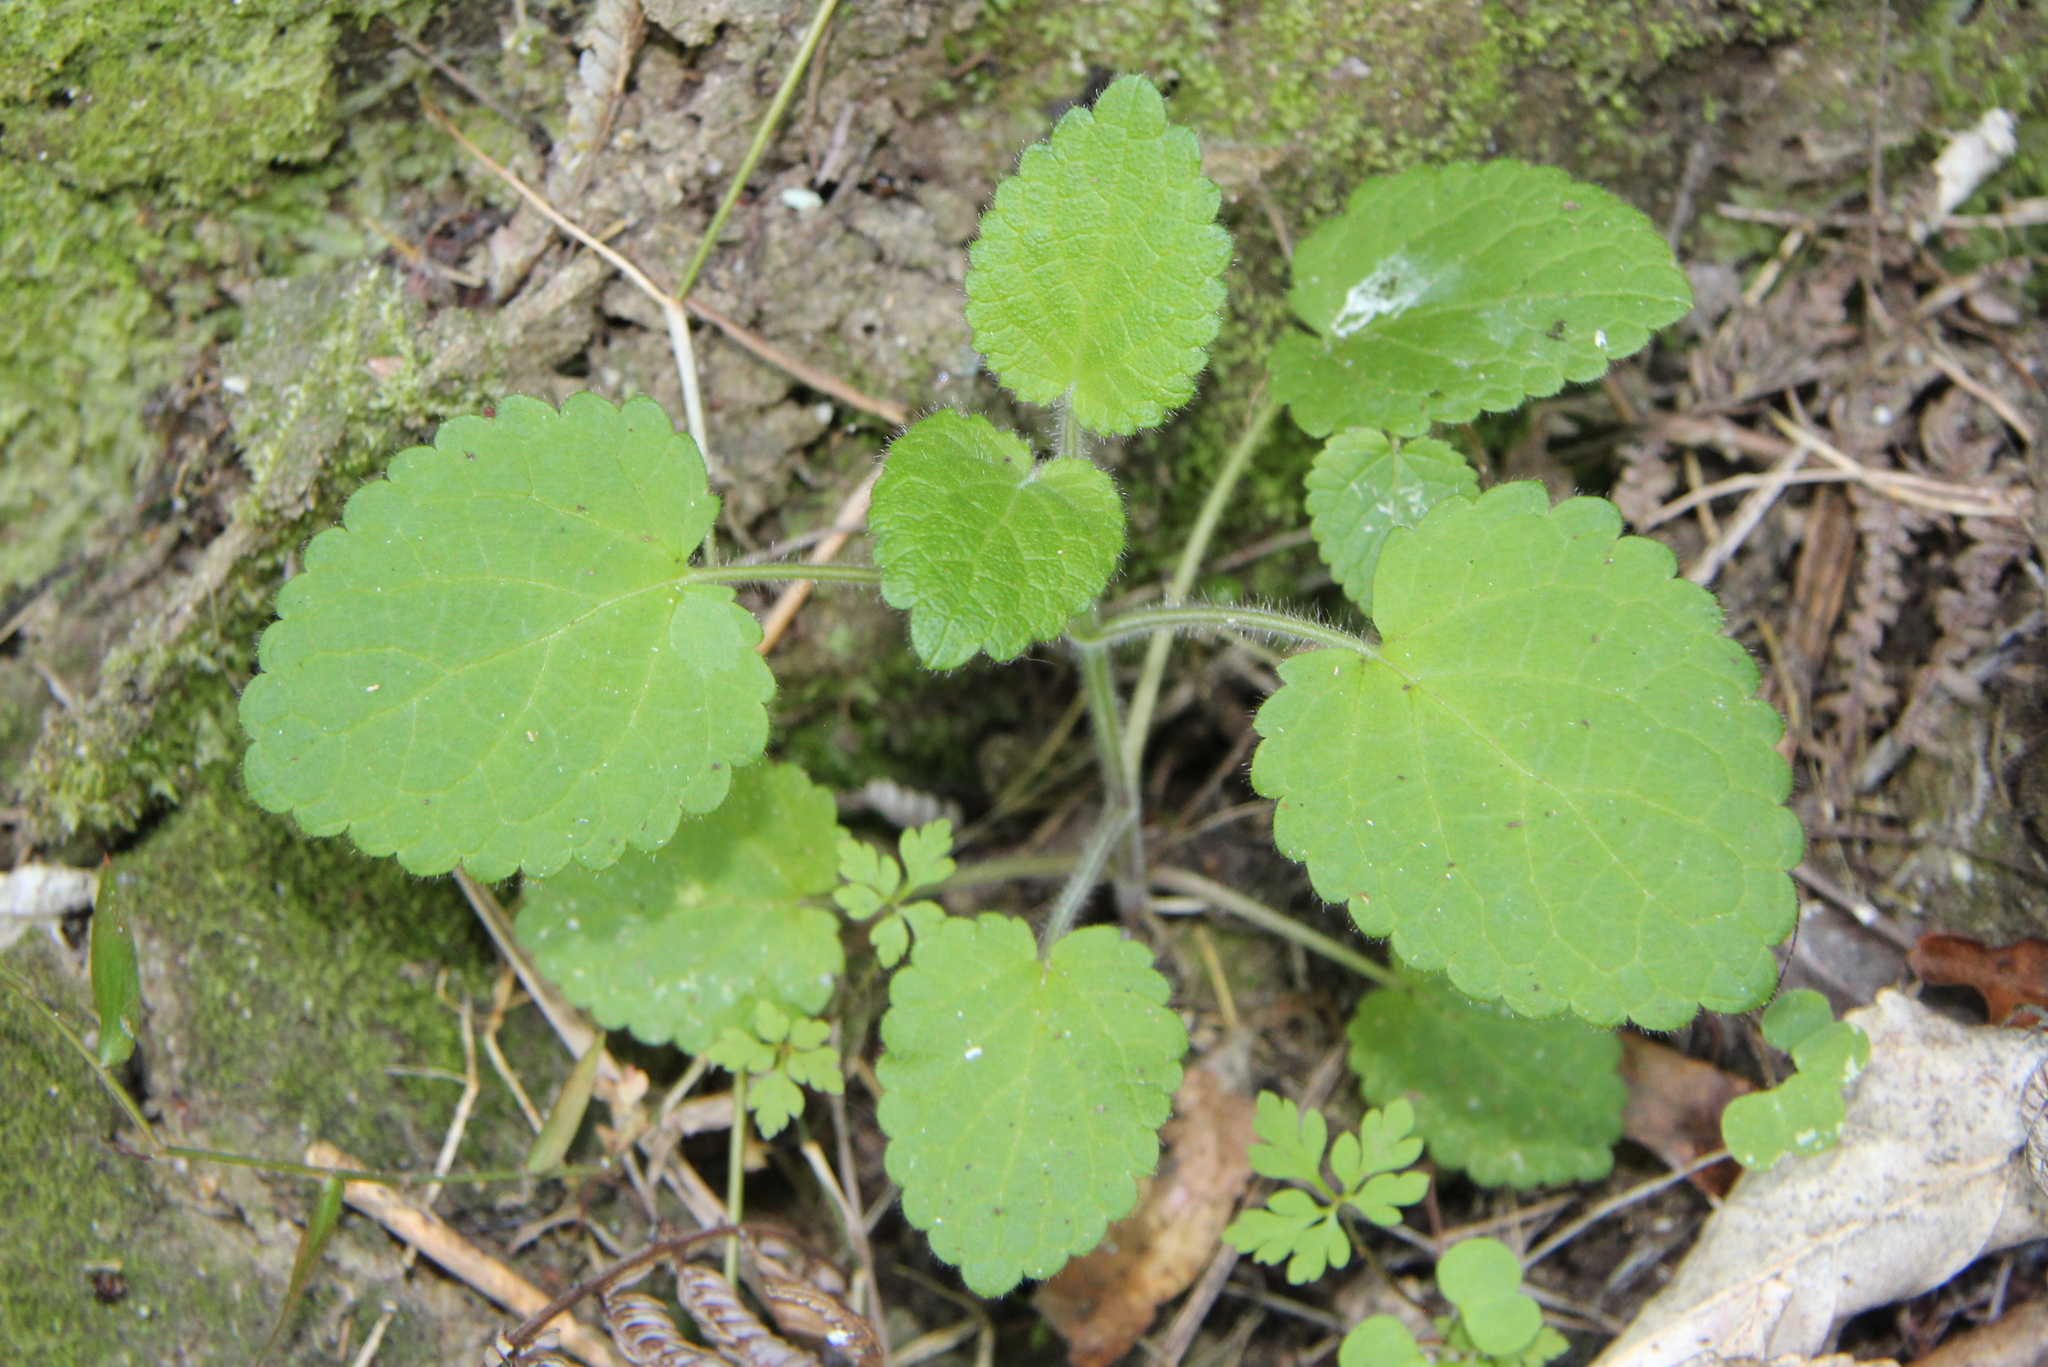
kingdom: Plantae
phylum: Tracheophyta
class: Magnoliopsida
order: Lamiales
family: Lamiaceae
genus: Stachys
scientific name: Stachys sylvatica
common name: Hedge woundwort
